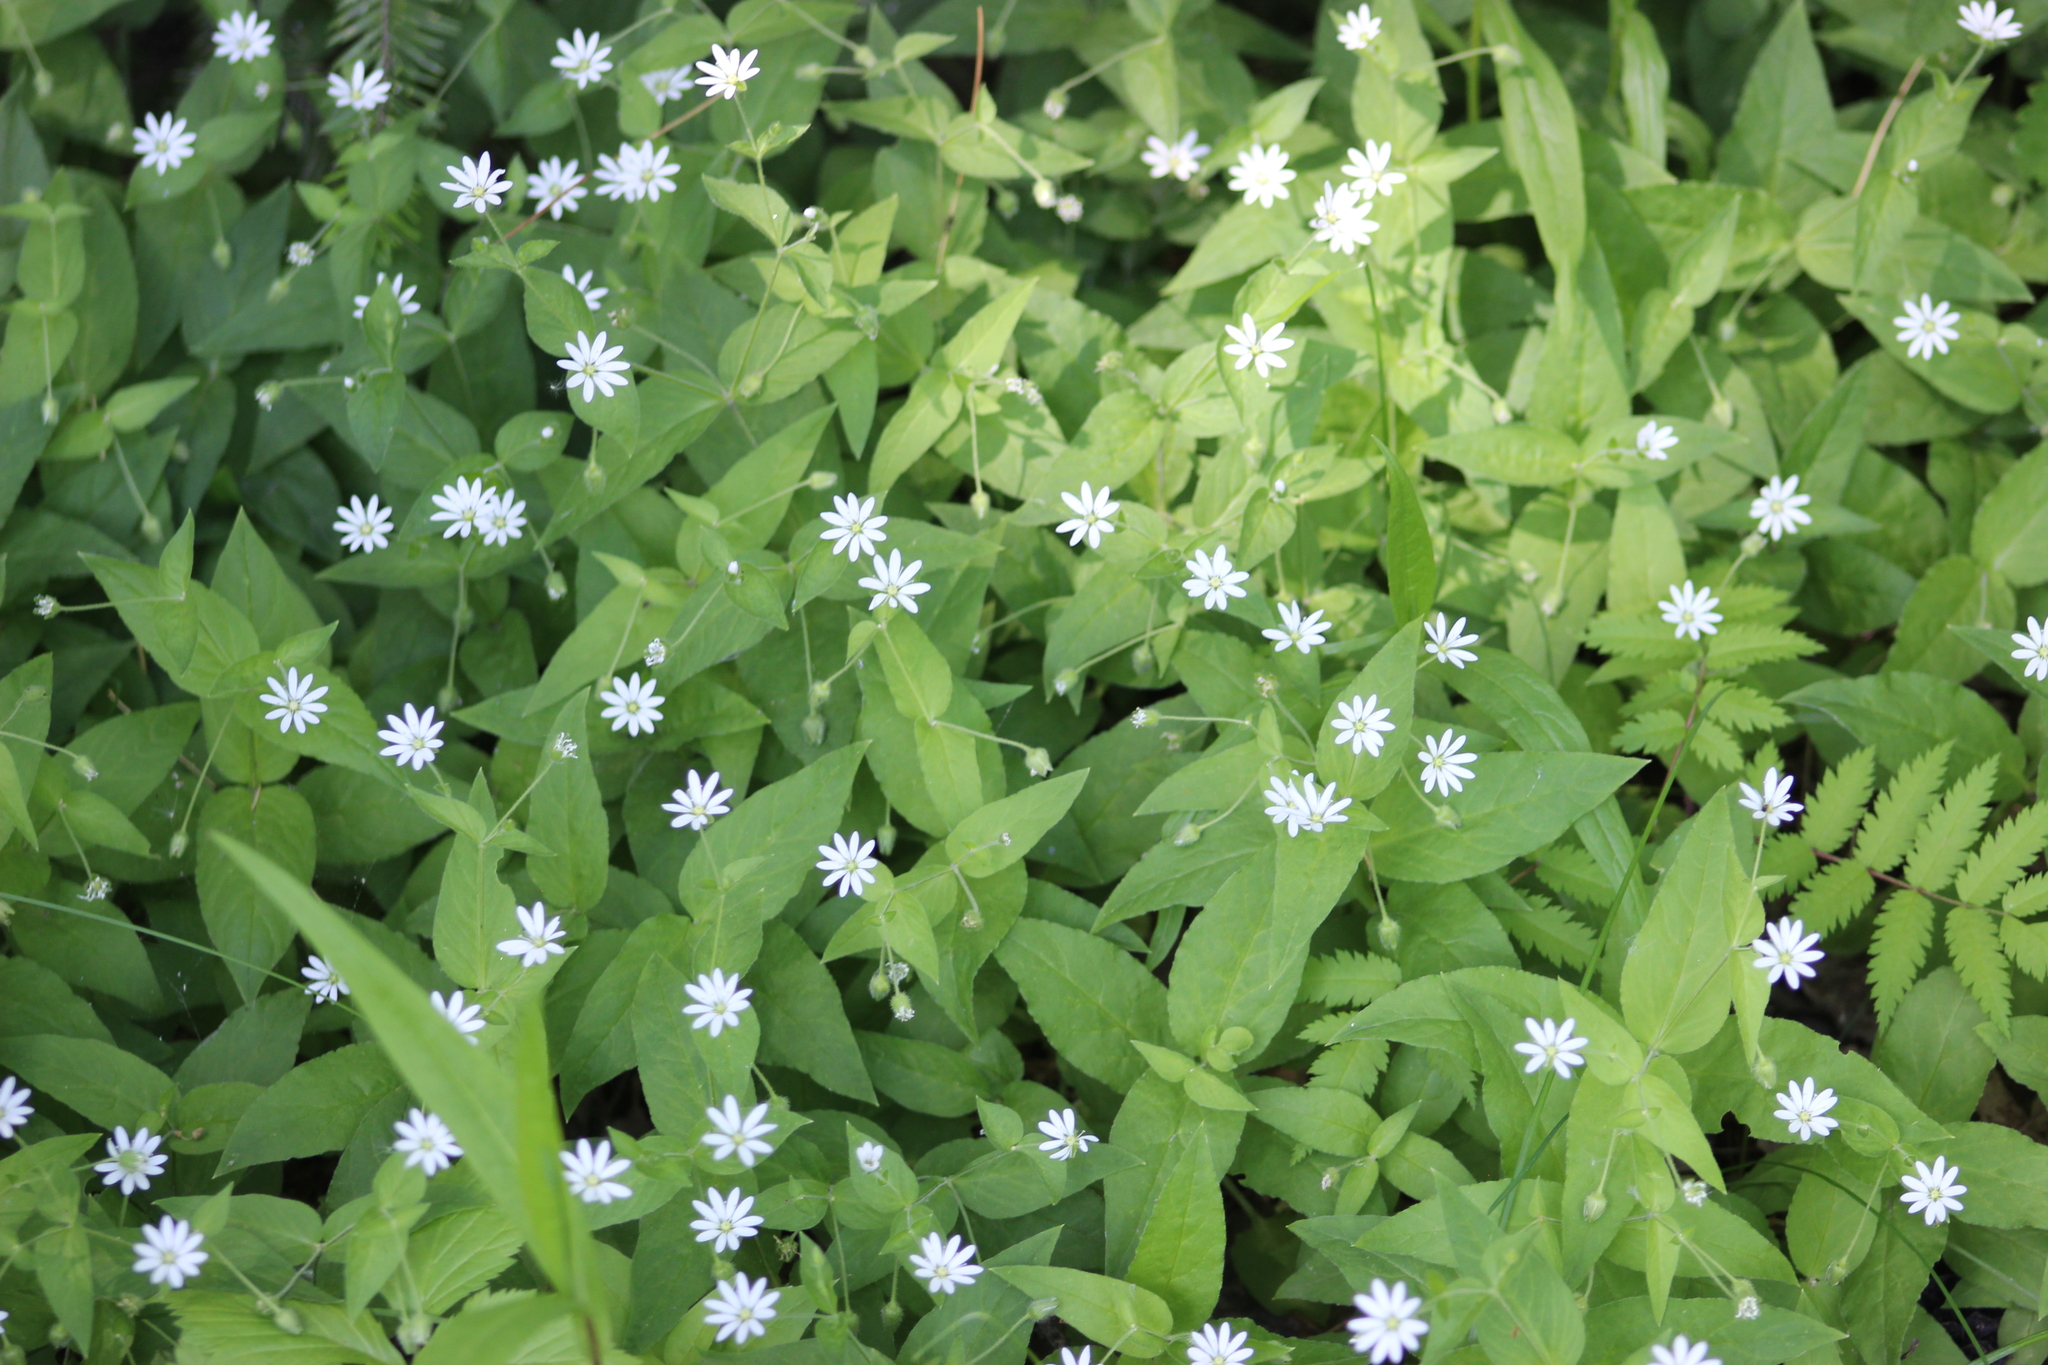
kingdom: Plantae
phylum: Tracheophyta
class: Magnoliopsida
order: Caryophyllales
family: Caryophyllaceae
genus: Stellaria
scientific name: Stellaria bungeana
